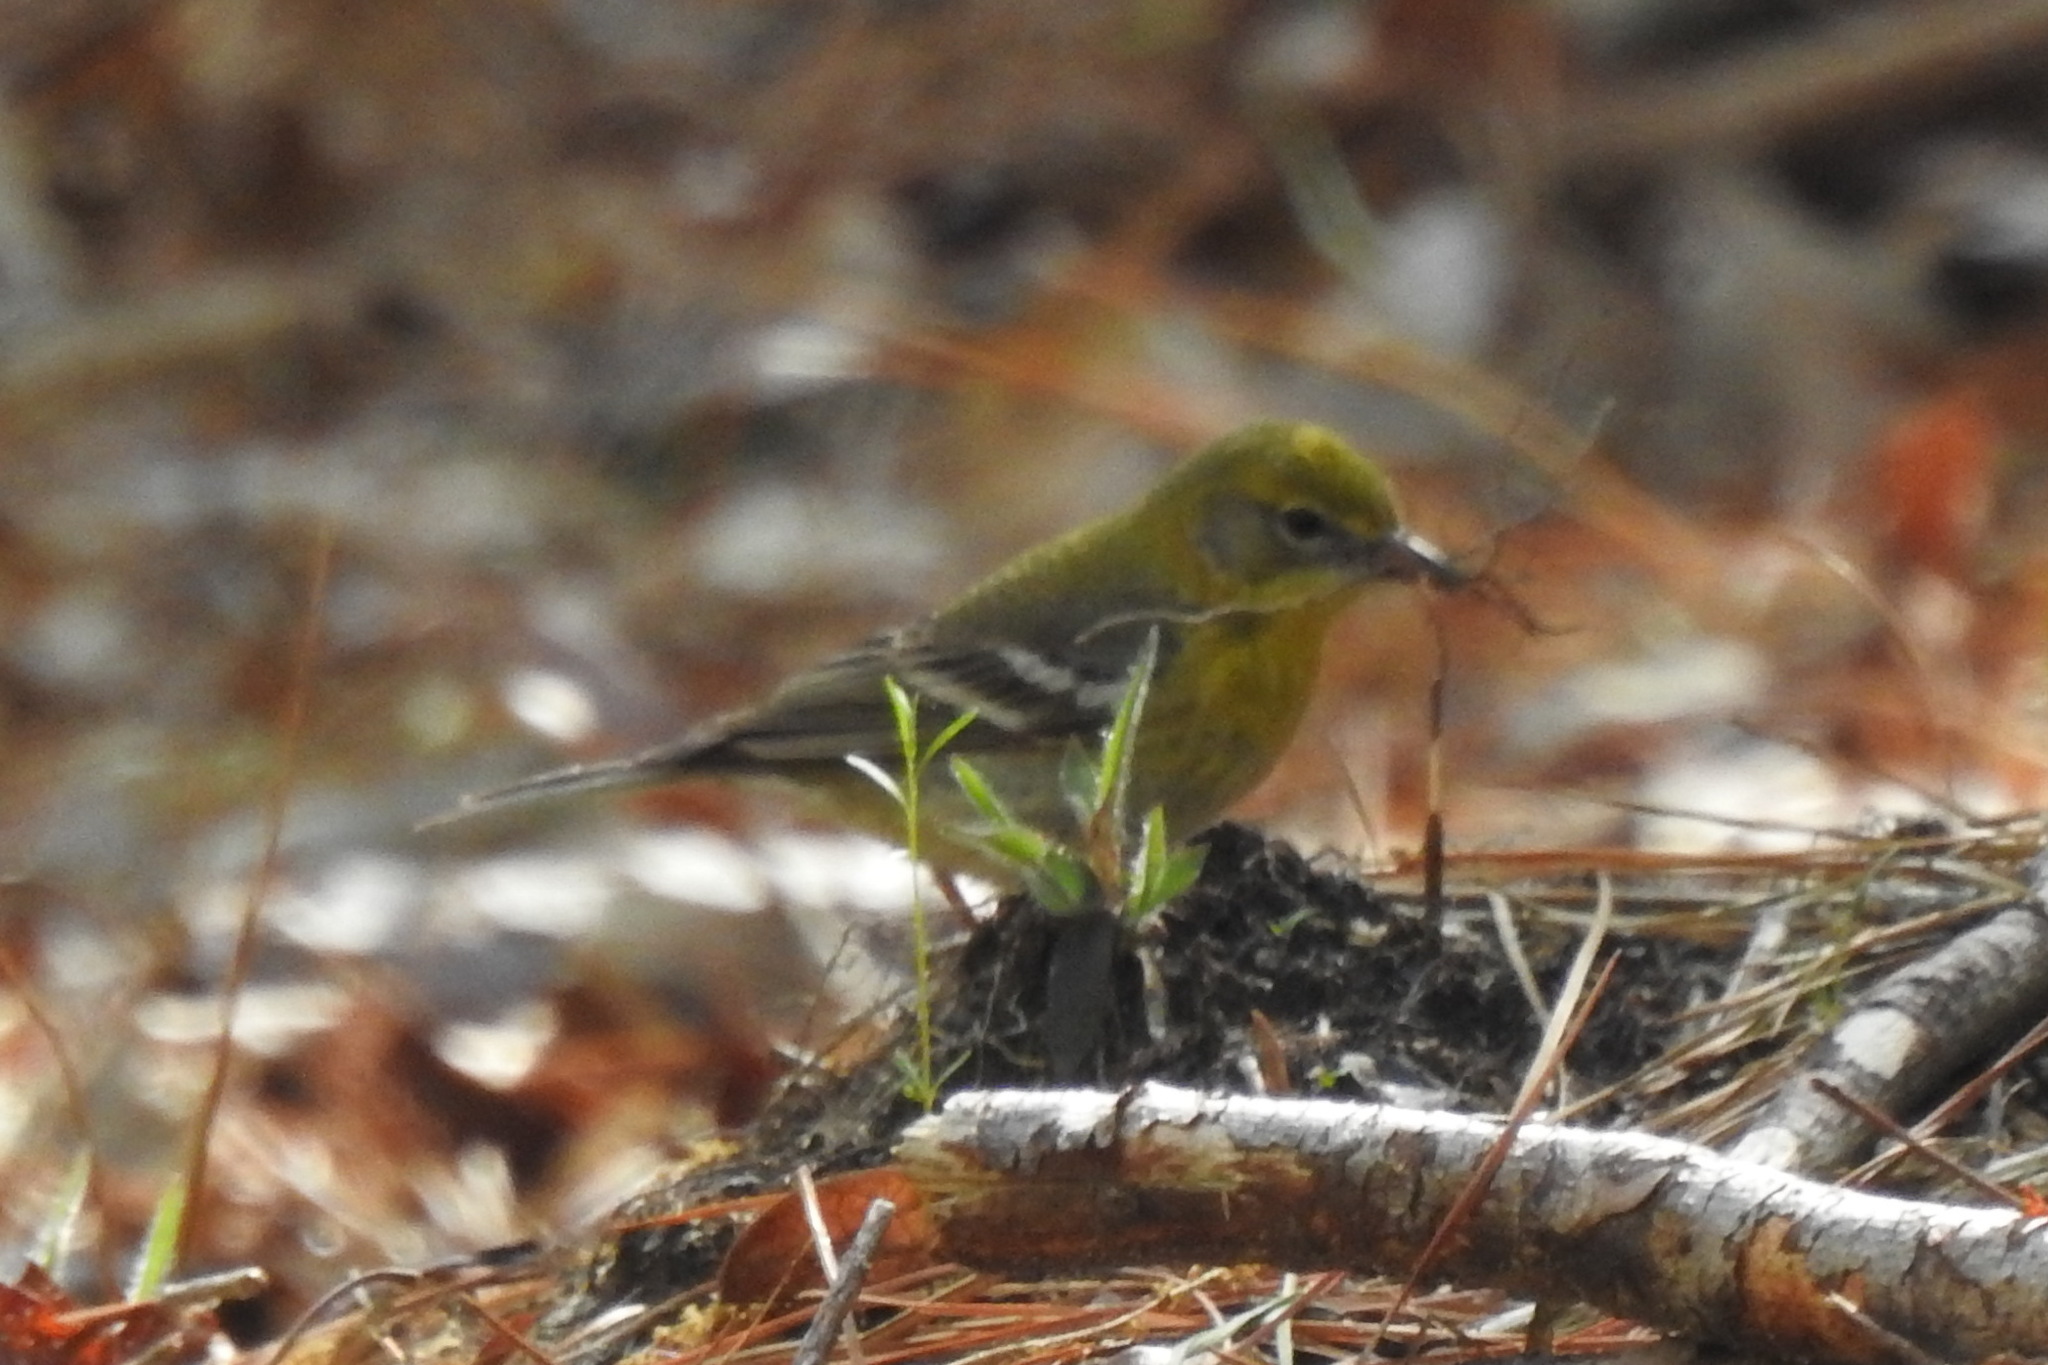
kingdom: Animalia
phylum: Chordata
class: Aves
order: Passeriformes
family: Parulidae
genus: Setophaga
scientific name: Setophaga pinus
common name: Pine warbler
